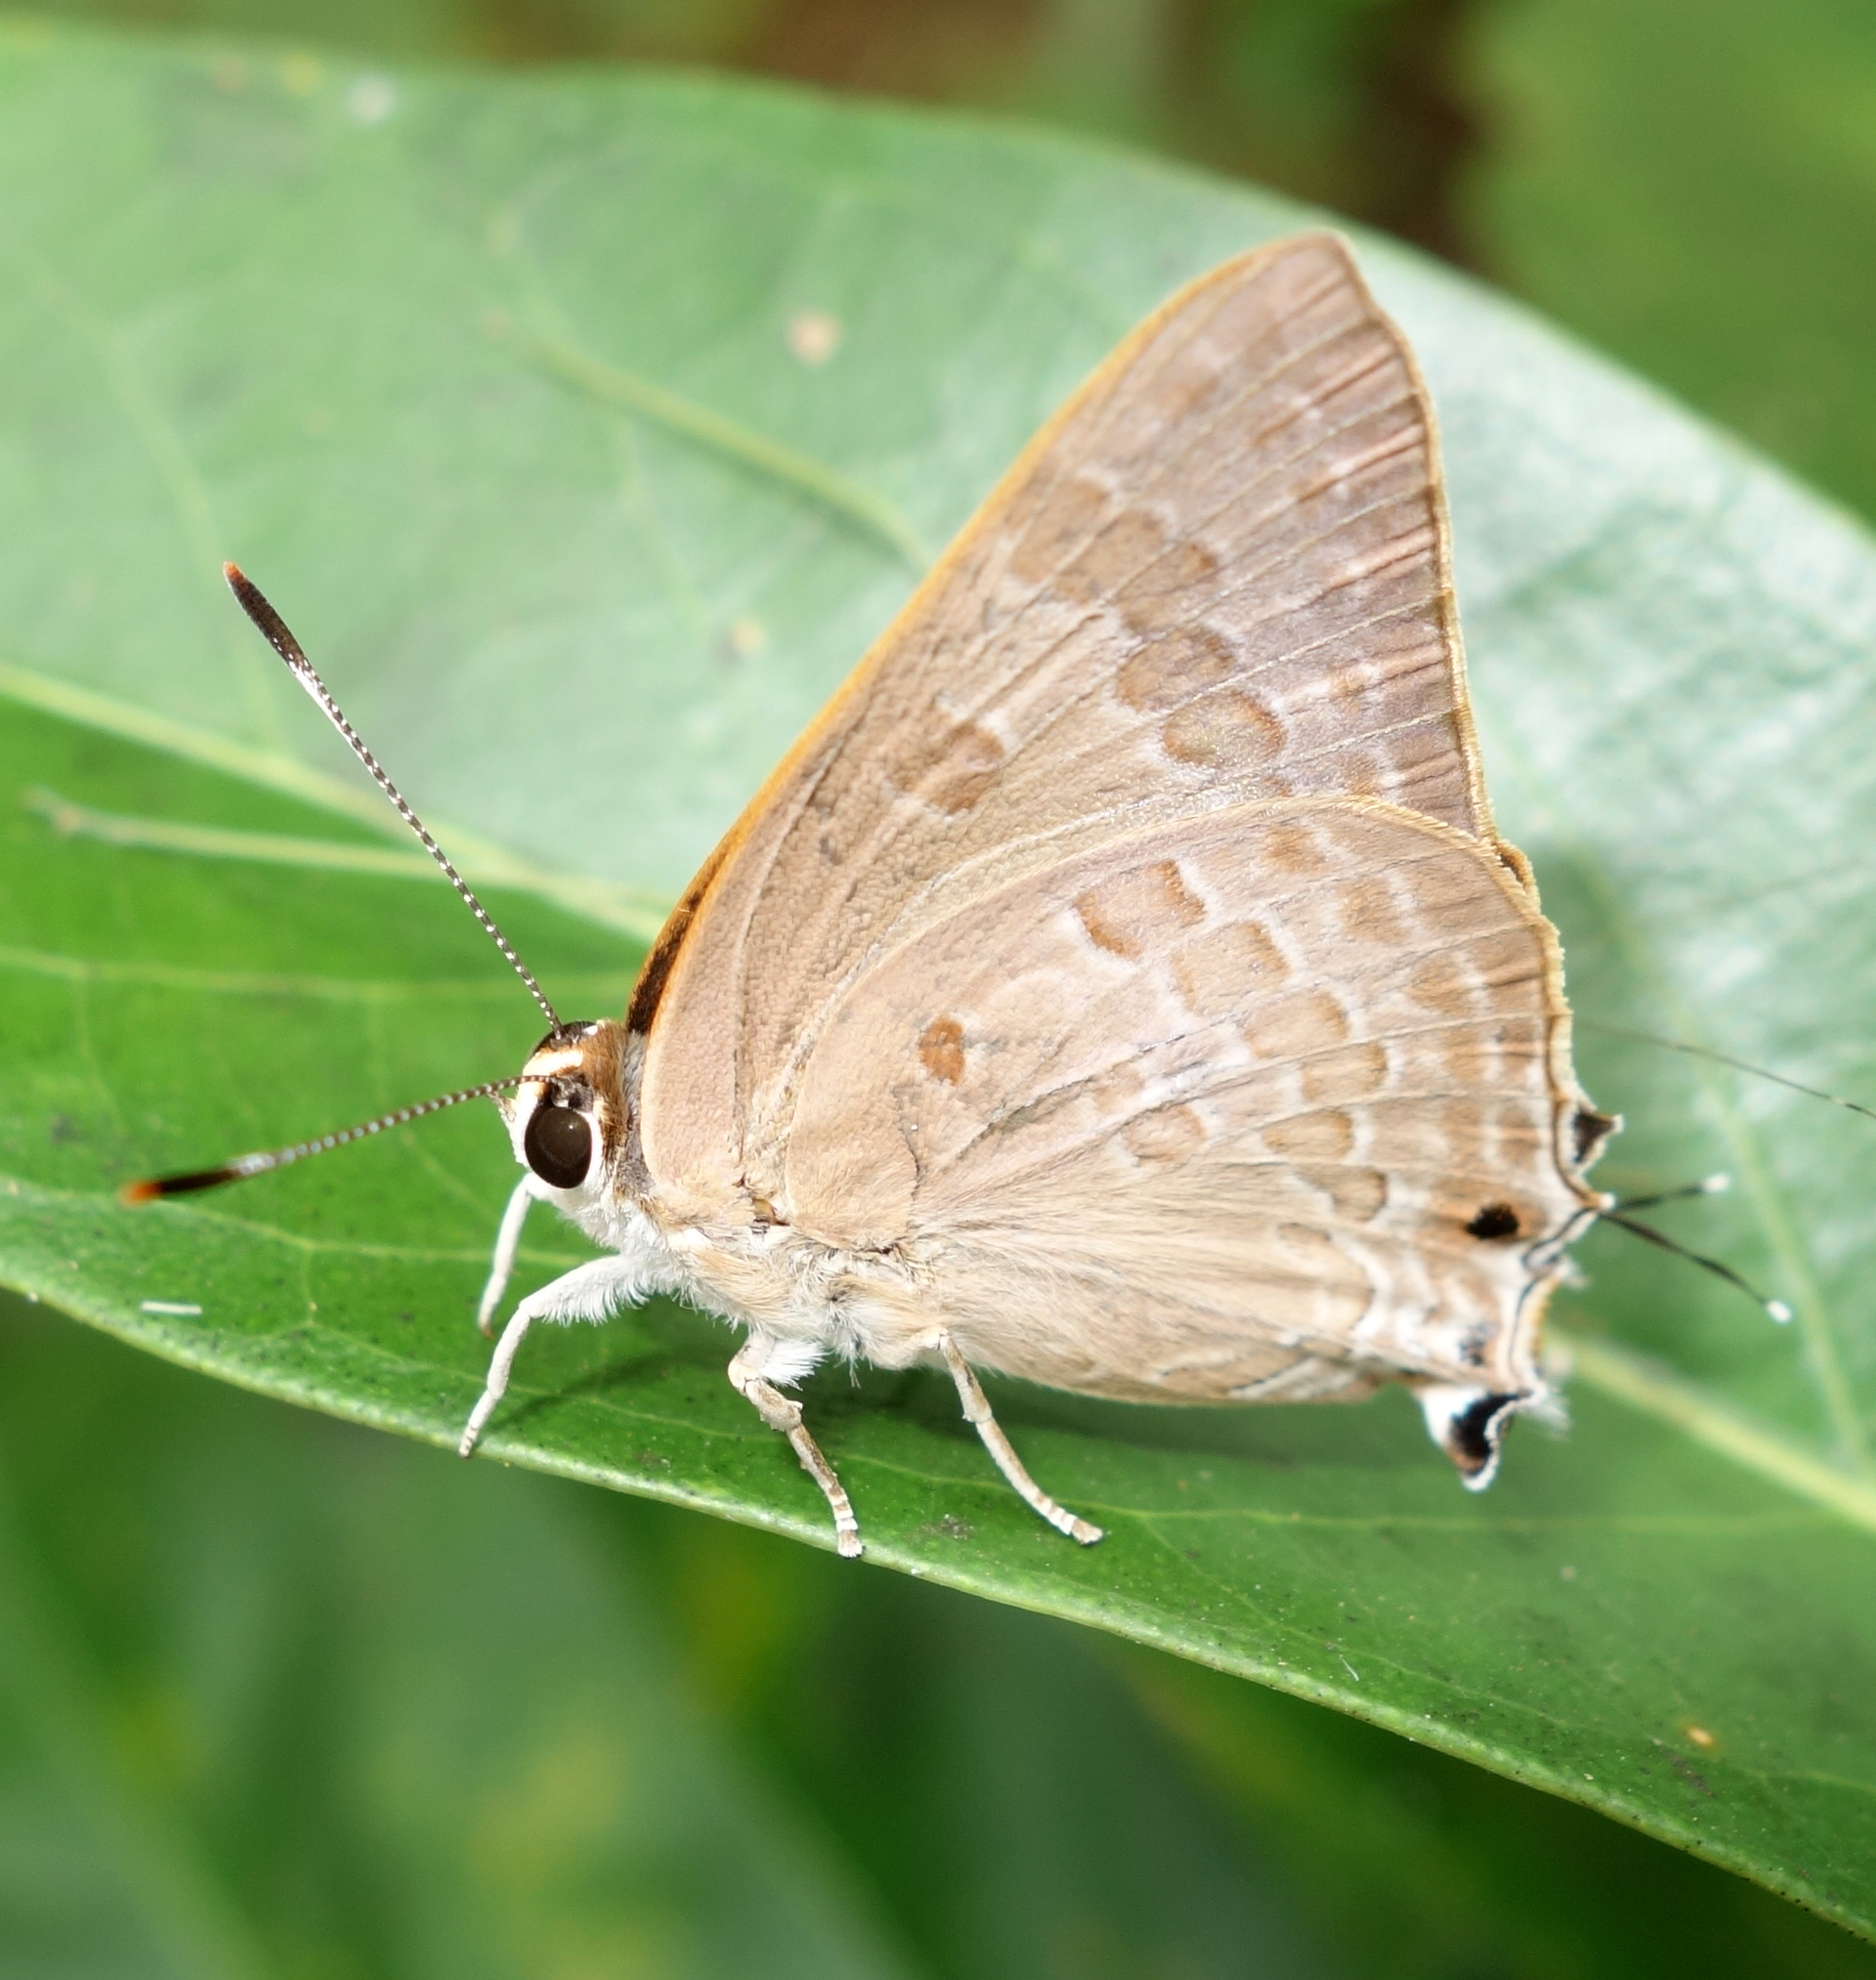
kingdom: Animalia
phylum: Arthropoda
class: Insecta
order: Lepidoptera
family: Lycaenidae
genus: Deudorix
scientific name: Deudorix
